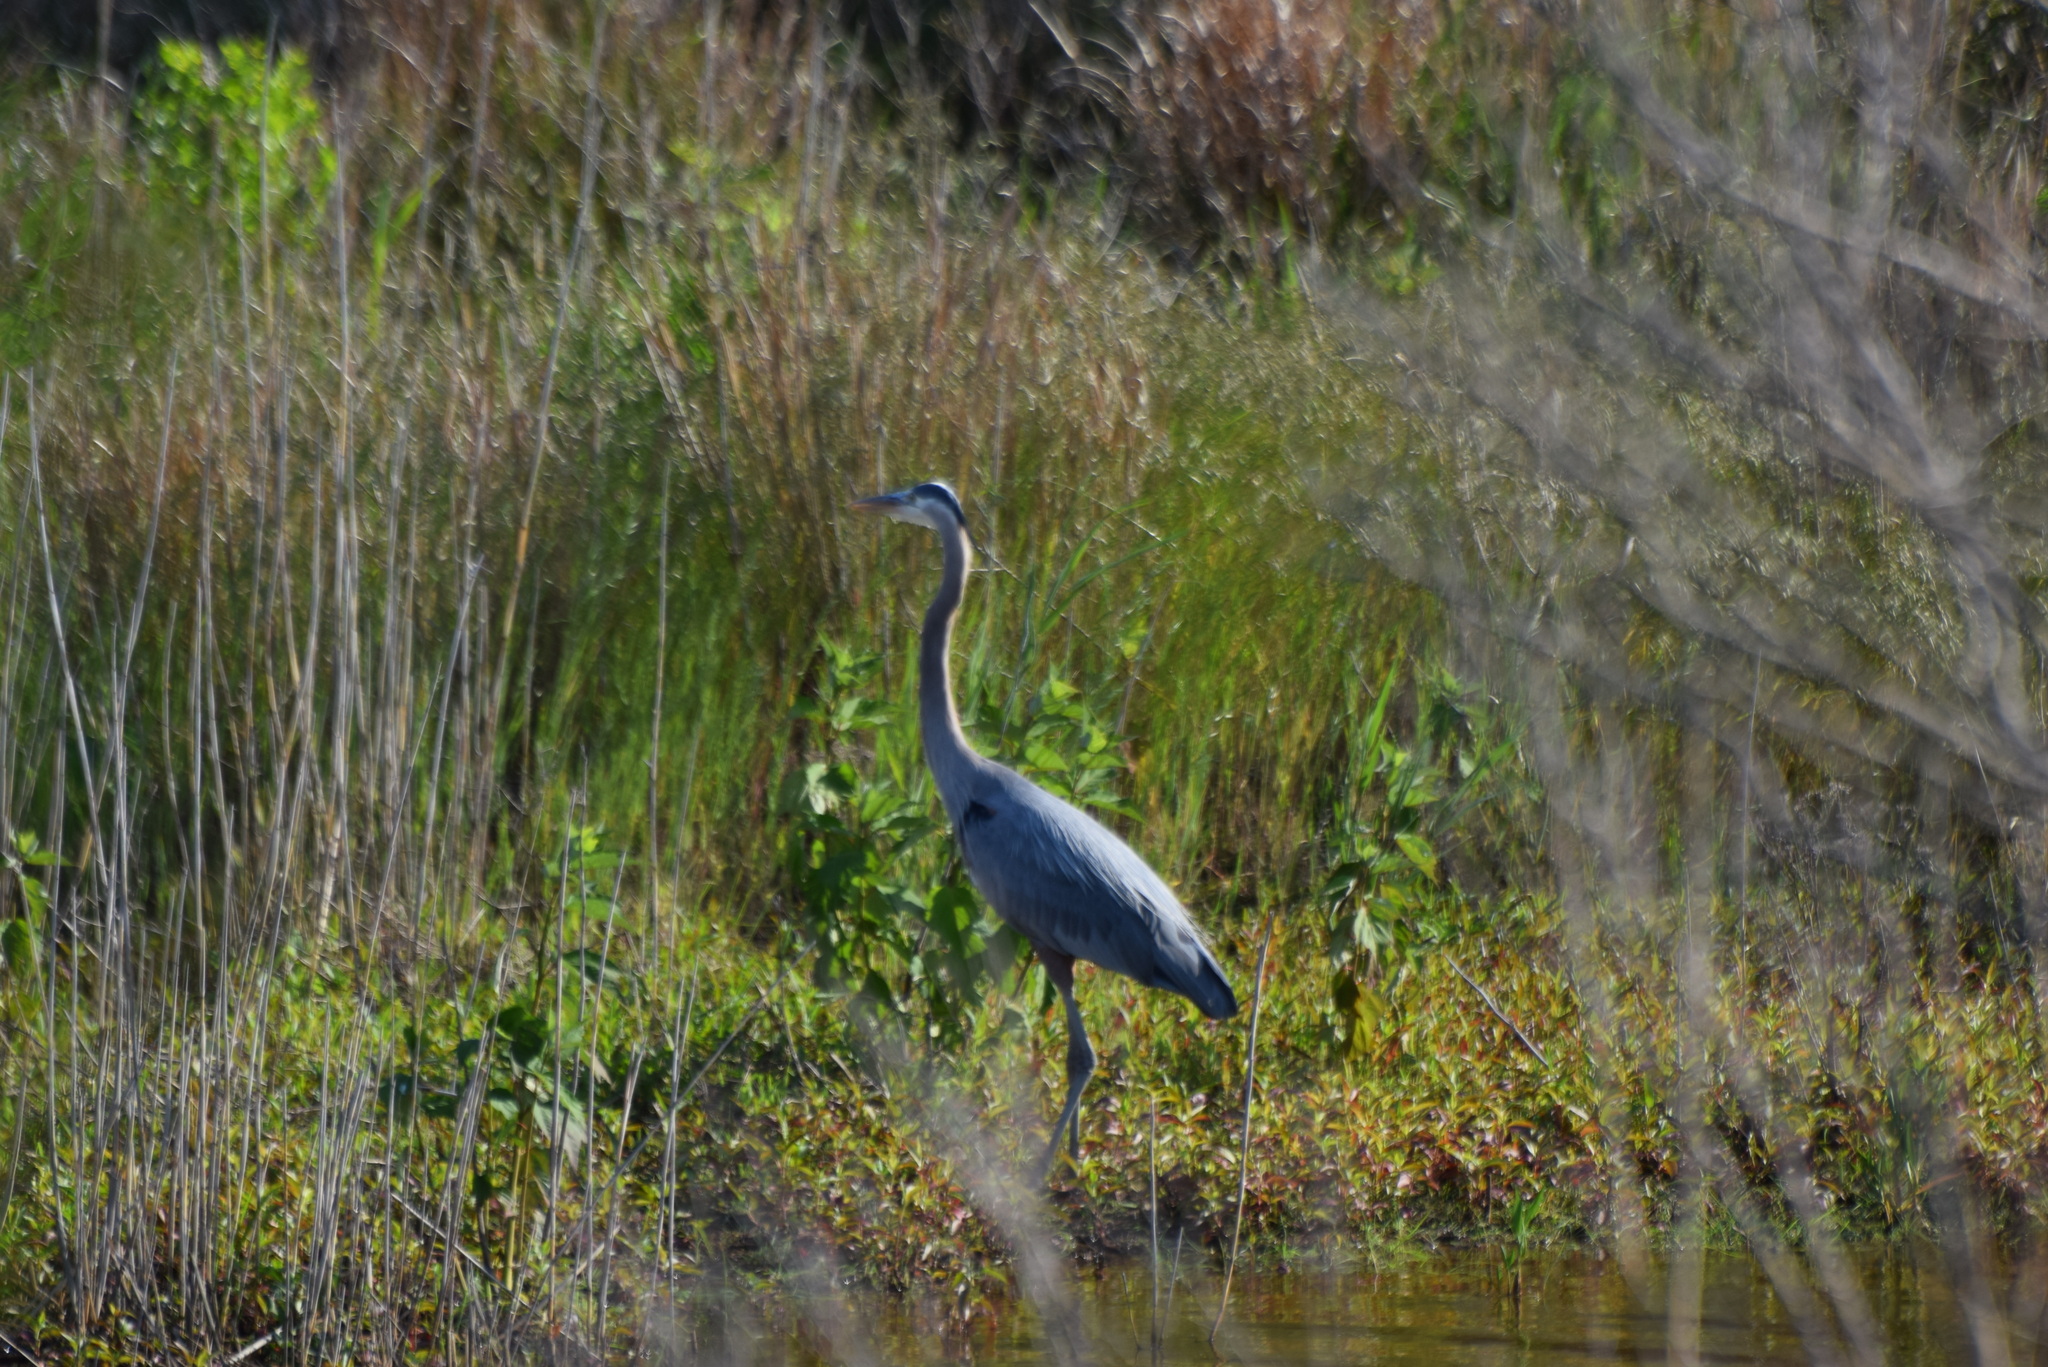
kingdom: Animalia
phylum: Chordata
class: Aves
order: Pelecaniformes
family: Ardeidae
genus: Ardea
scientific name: Ardea herodias
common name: Great blue heron
